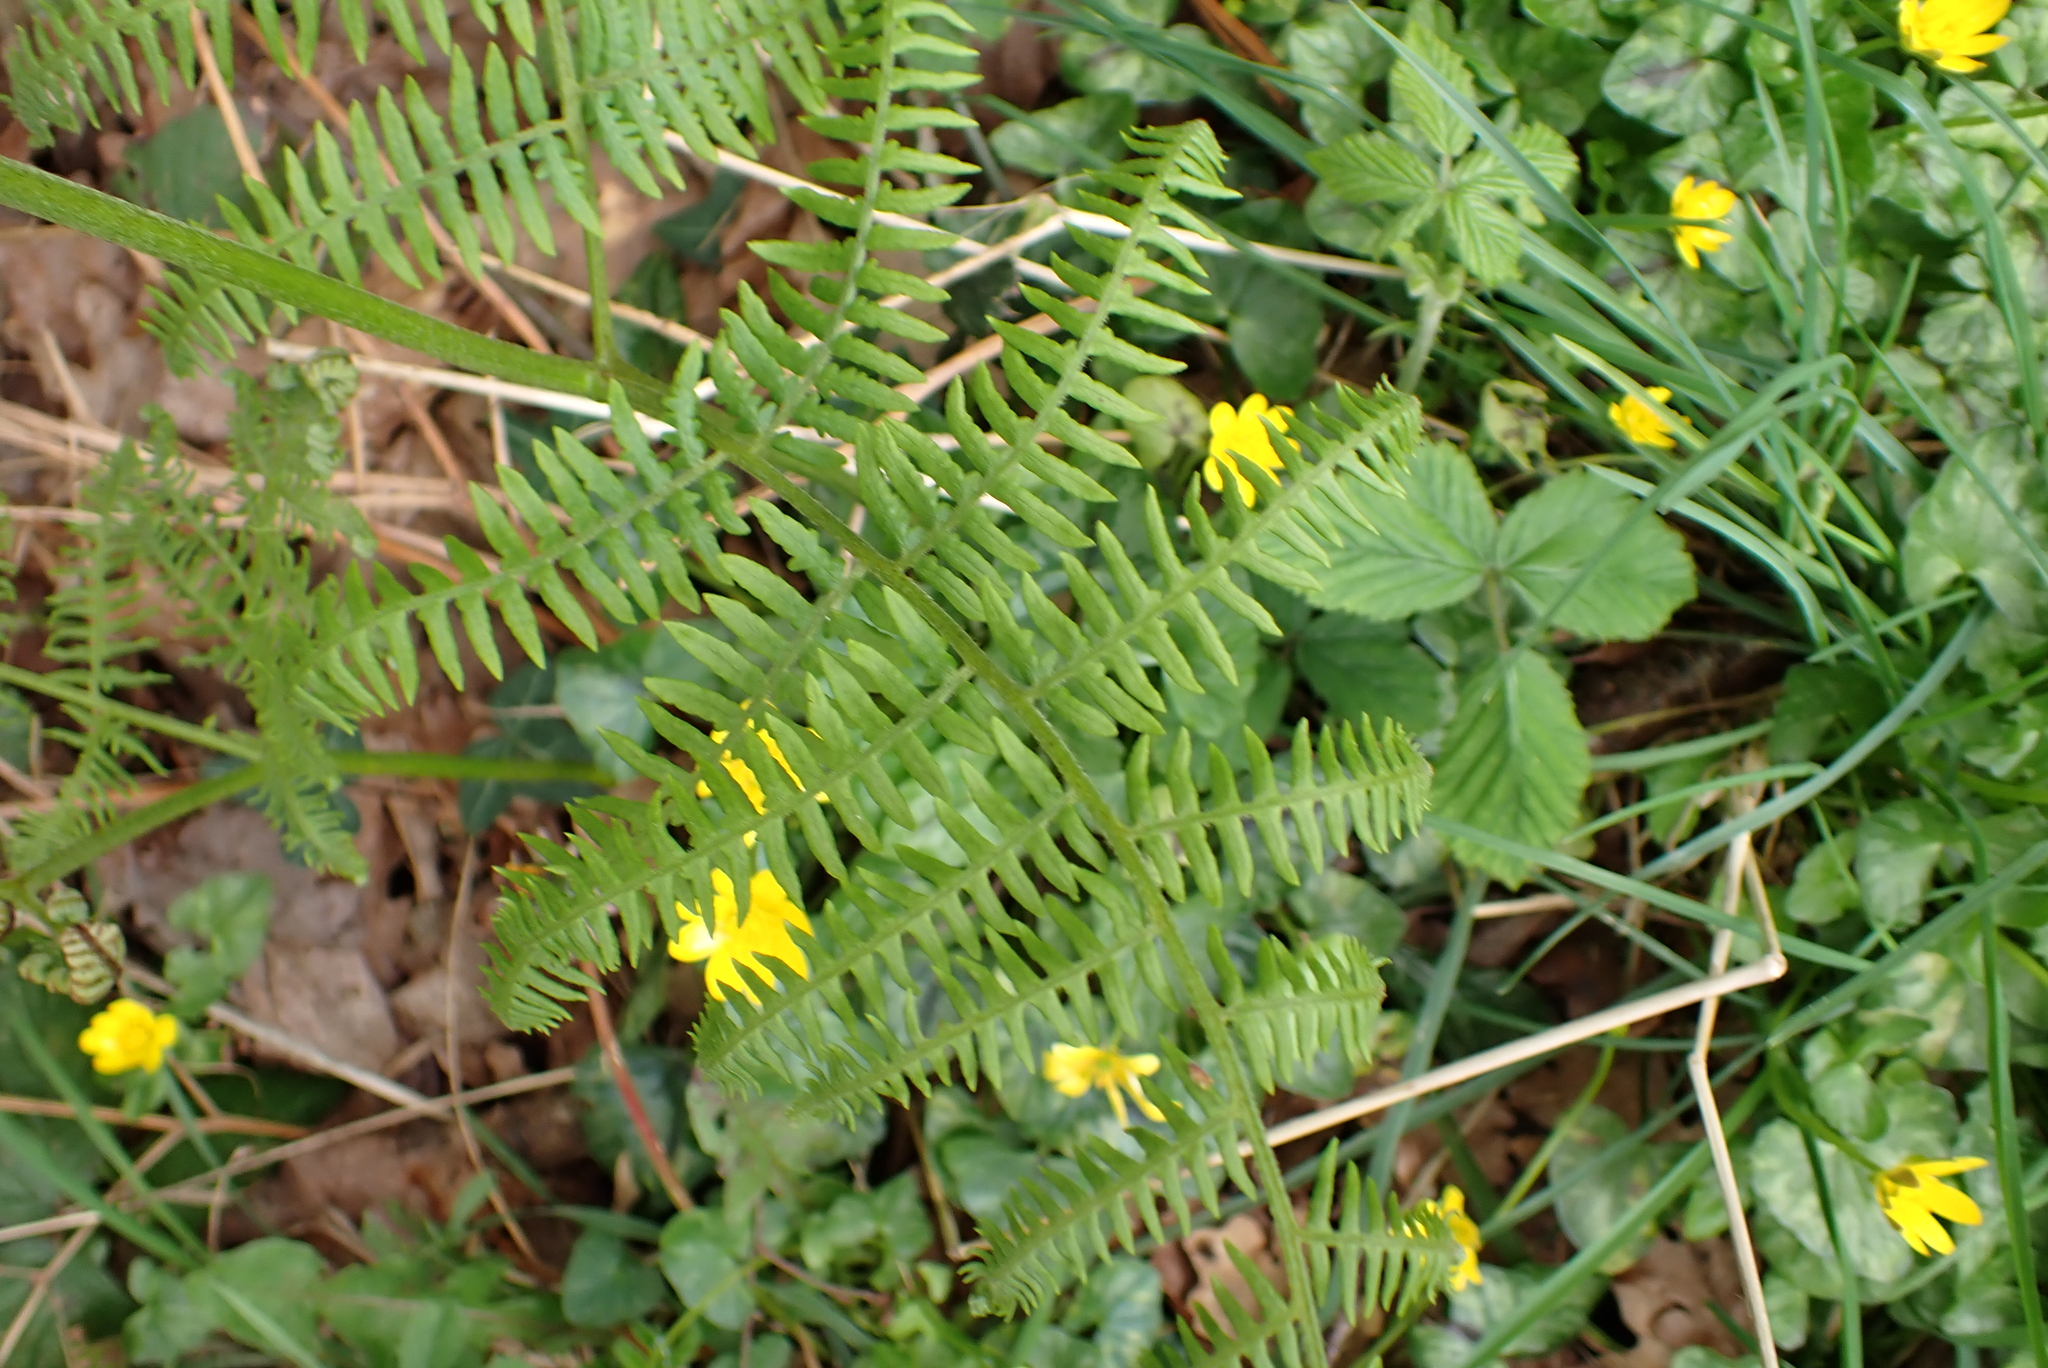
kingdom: Plantae
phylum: Tracheophyta
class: Polypodiopsida
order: Polypodiales
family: Dennstaedtiaceae
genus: Pteridium
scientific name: Pteridium aquilinum
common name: Bracken
